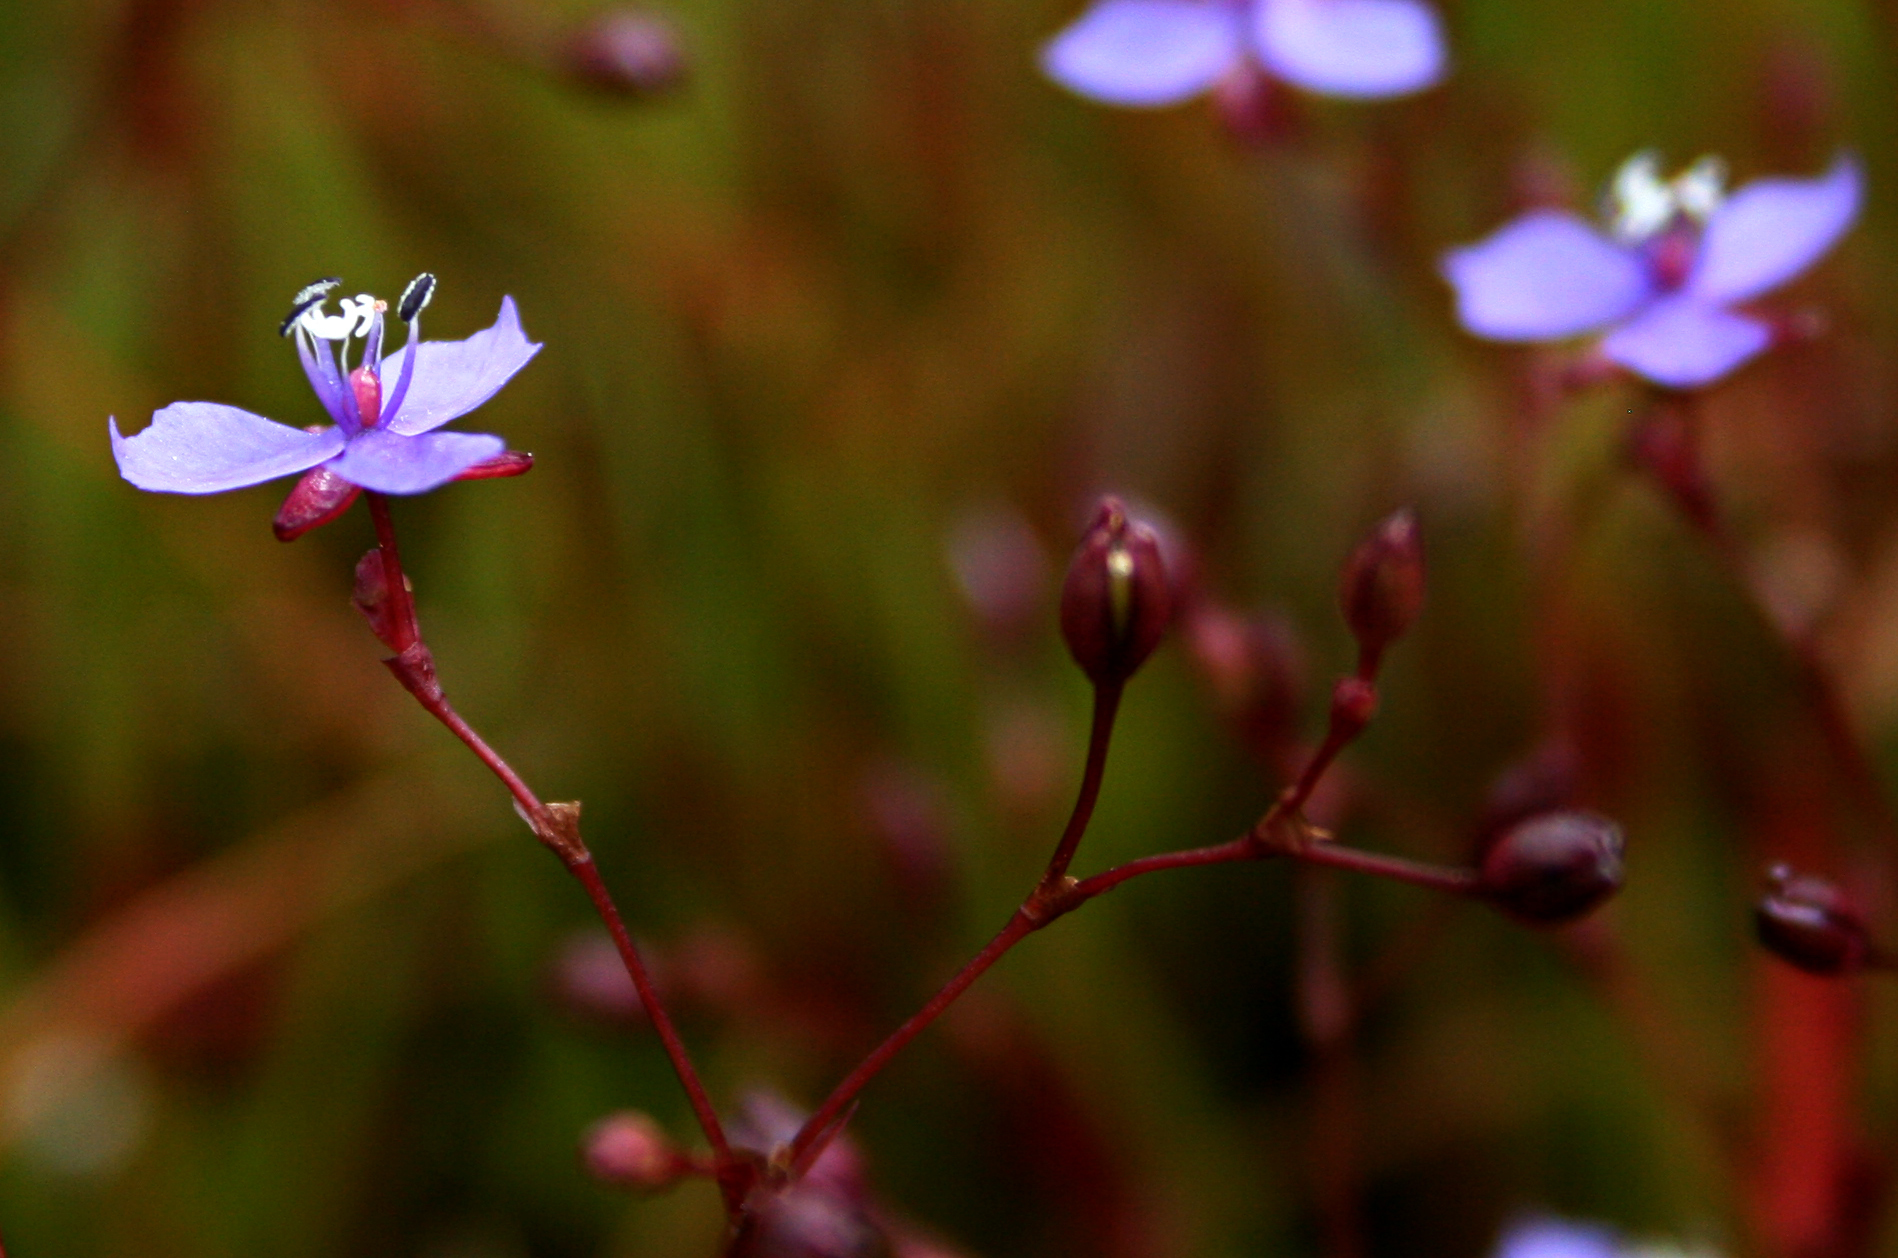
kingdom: Plantae
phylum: Tracheophyta
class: Liliopsida
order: Commelinales
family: Commelinaceae
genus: Murdannia
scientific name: Murdannia semiteres
